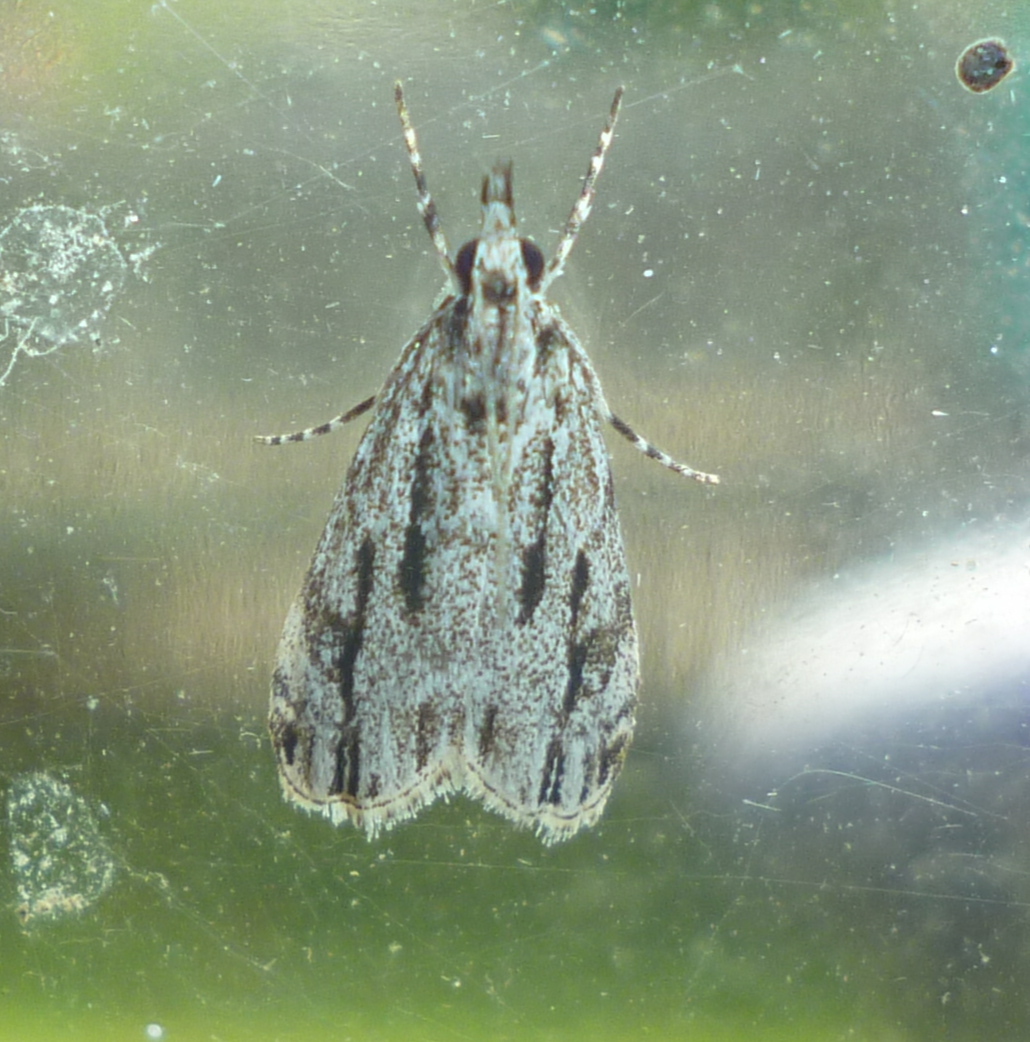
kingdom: Animalia
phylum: Arthropoda
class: Insecta
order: Lepidoptera
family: Crambidae
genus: Eudonia
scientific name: Eudonia strigalis
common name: Striped eudonia moth
